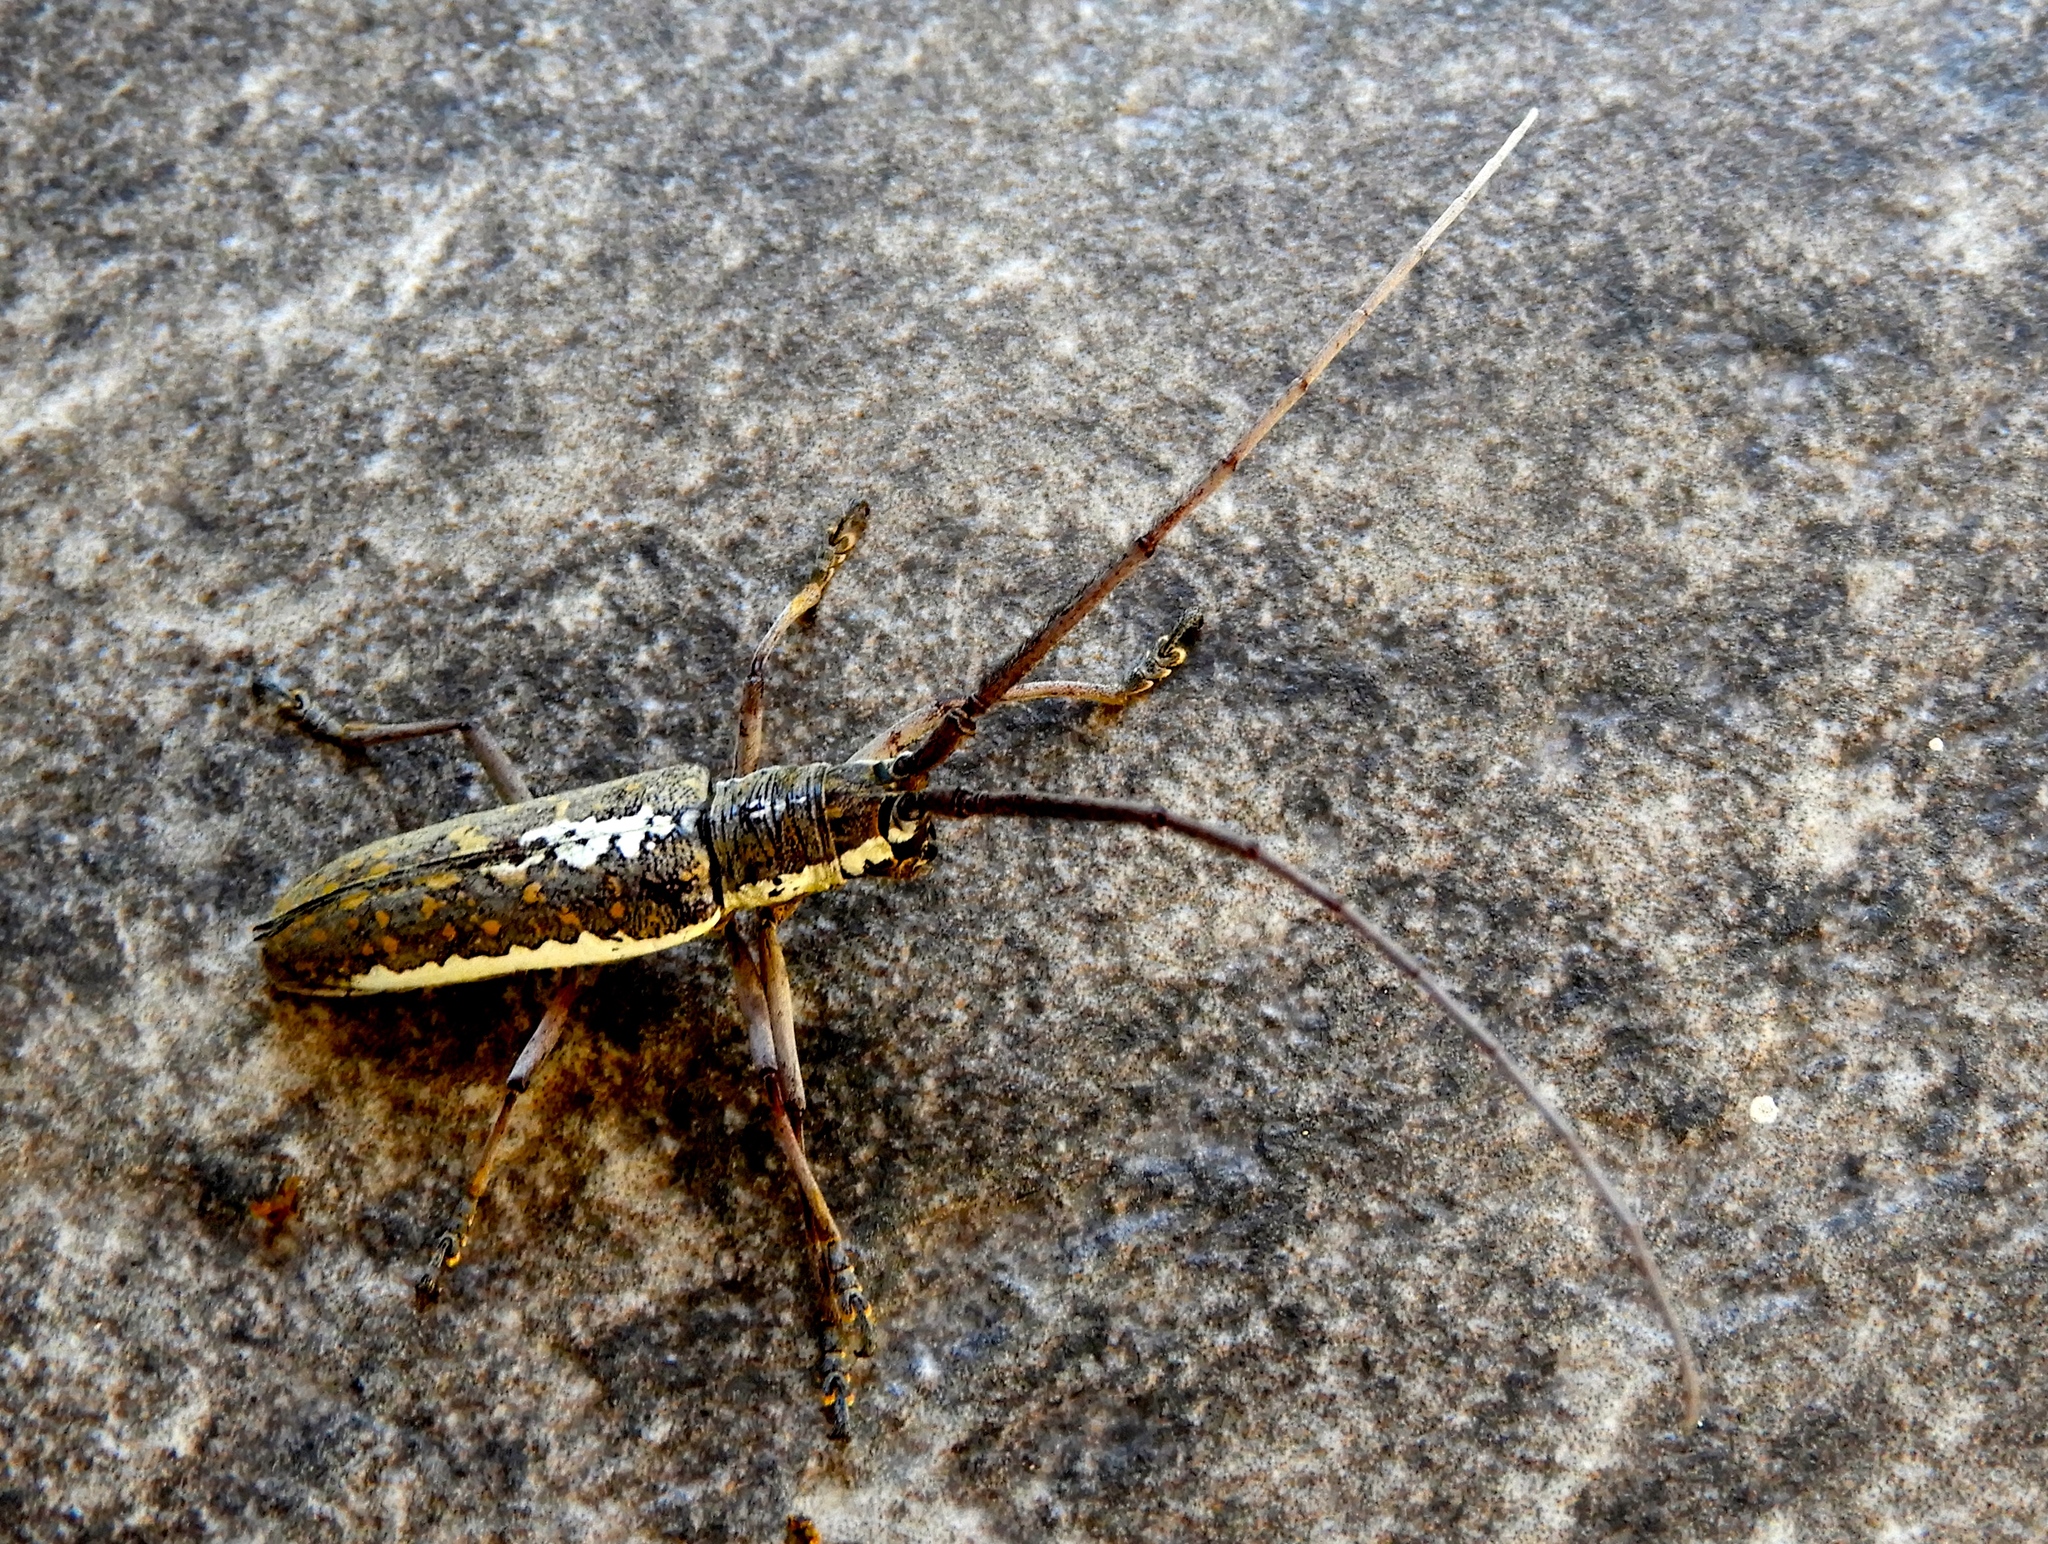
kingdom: Animalia
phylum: Arthropoda
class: Insecta
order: Coleoptera
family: Cerambycidae
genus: Neoptychodes
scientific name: Neoptychodes trilineatus
